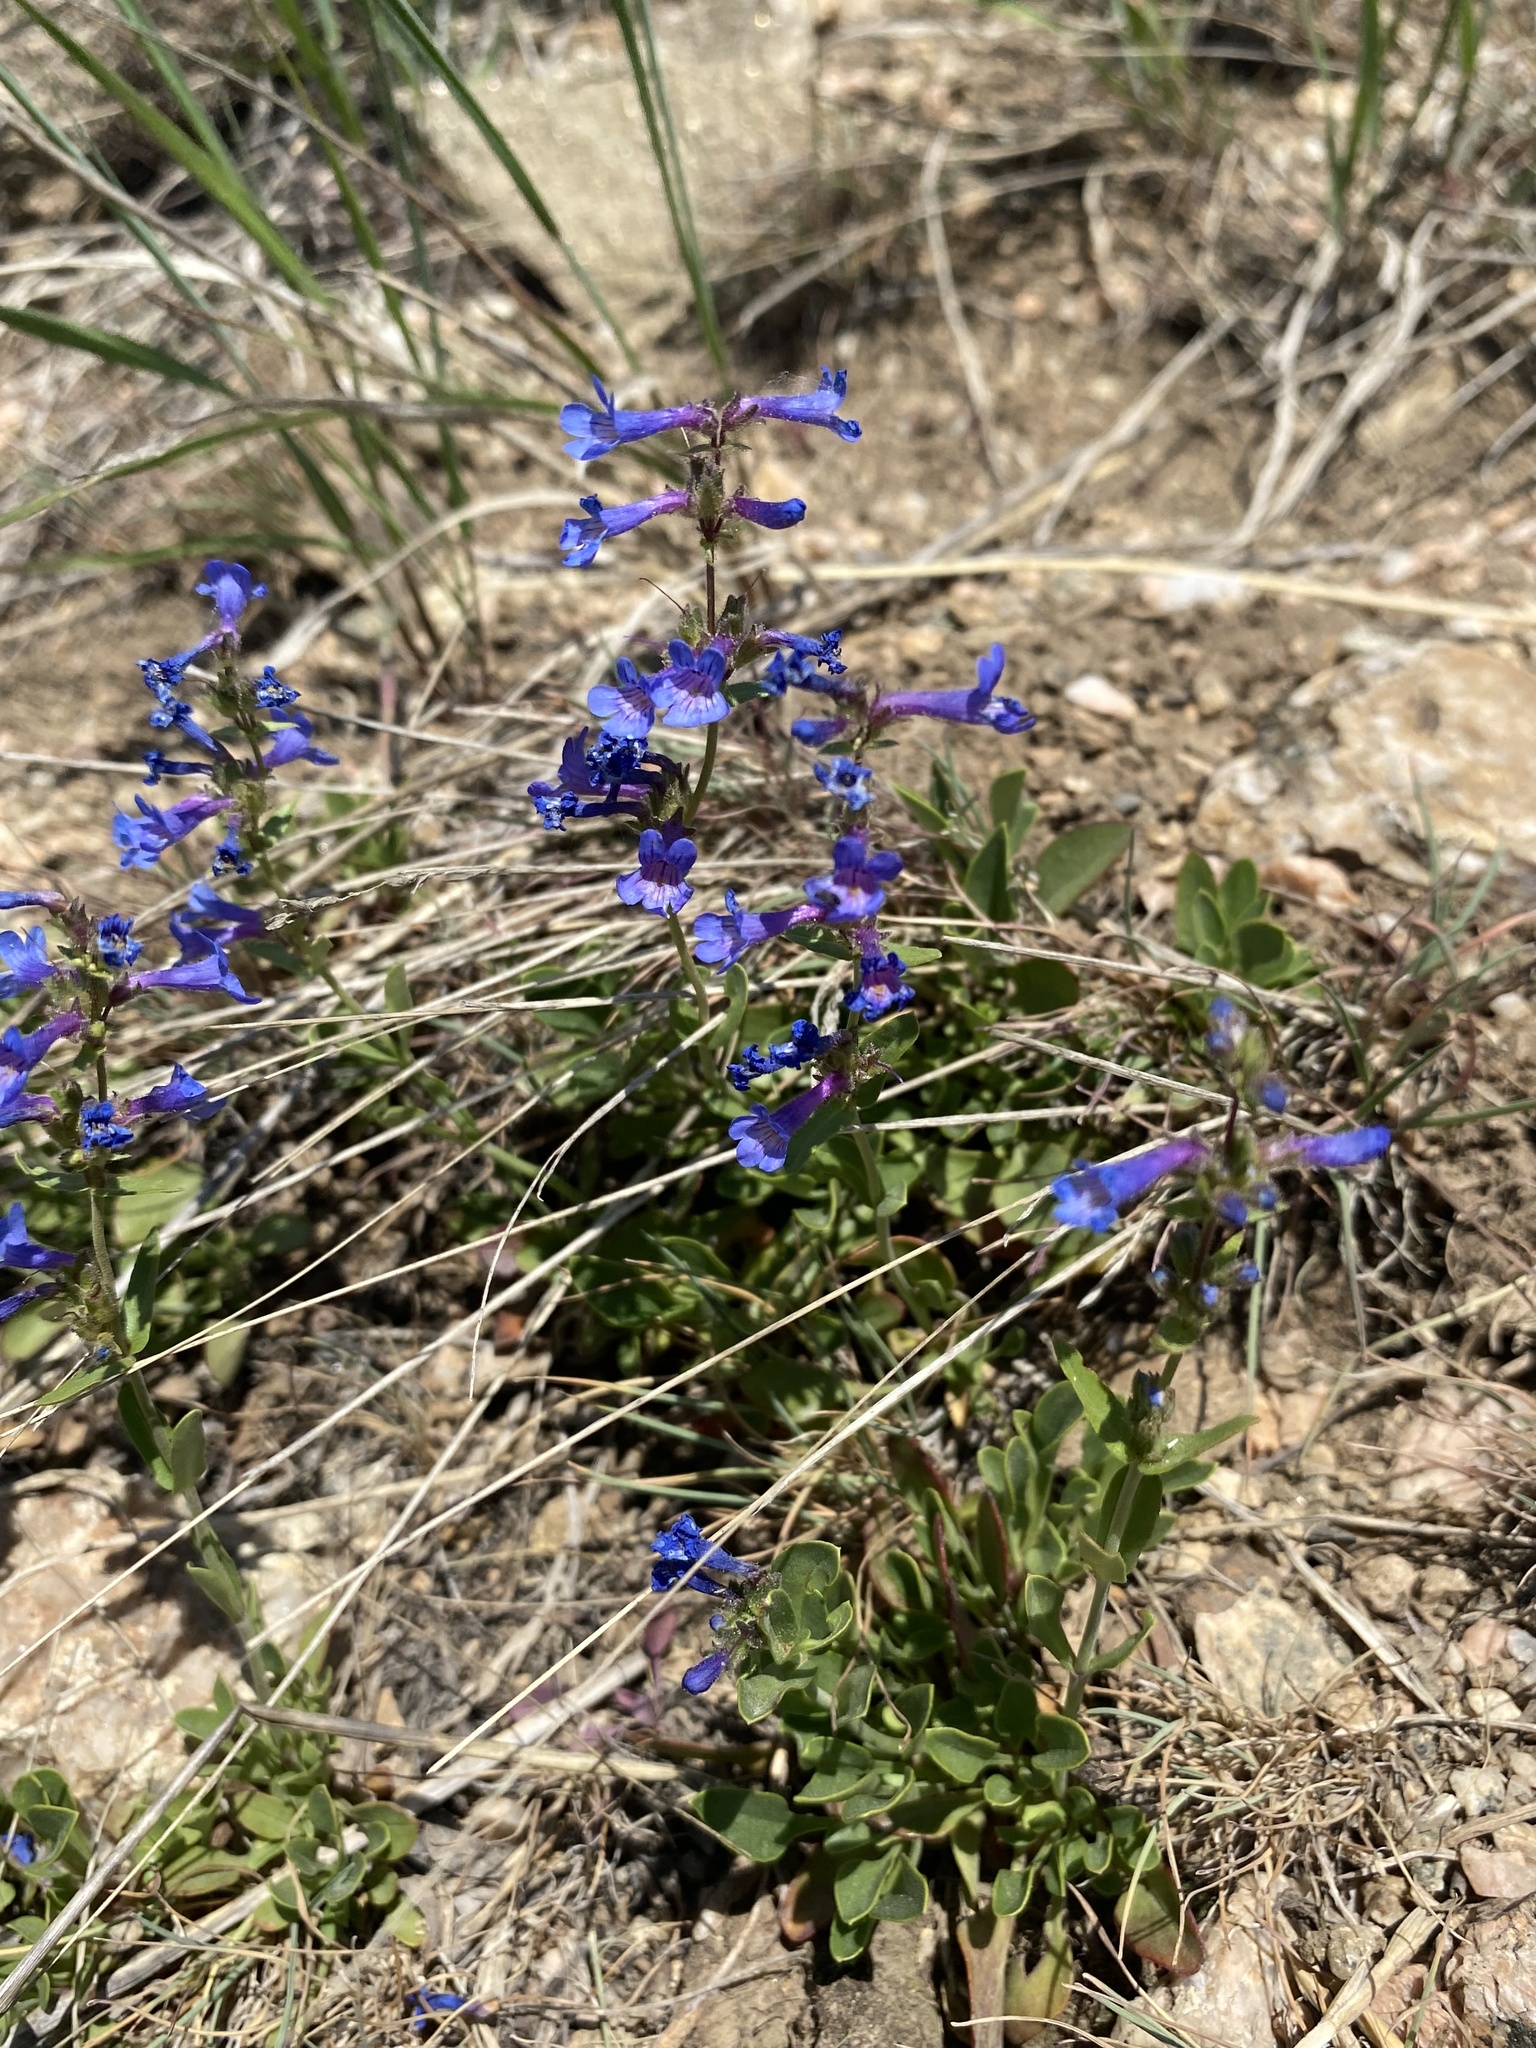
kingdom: Plantae
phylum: Tracheophyta
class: Magnoliopsida
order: Lamiales
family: Plantaginaceae
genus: Penstemon
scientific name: Penstemon humilis
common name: Low penstemon
